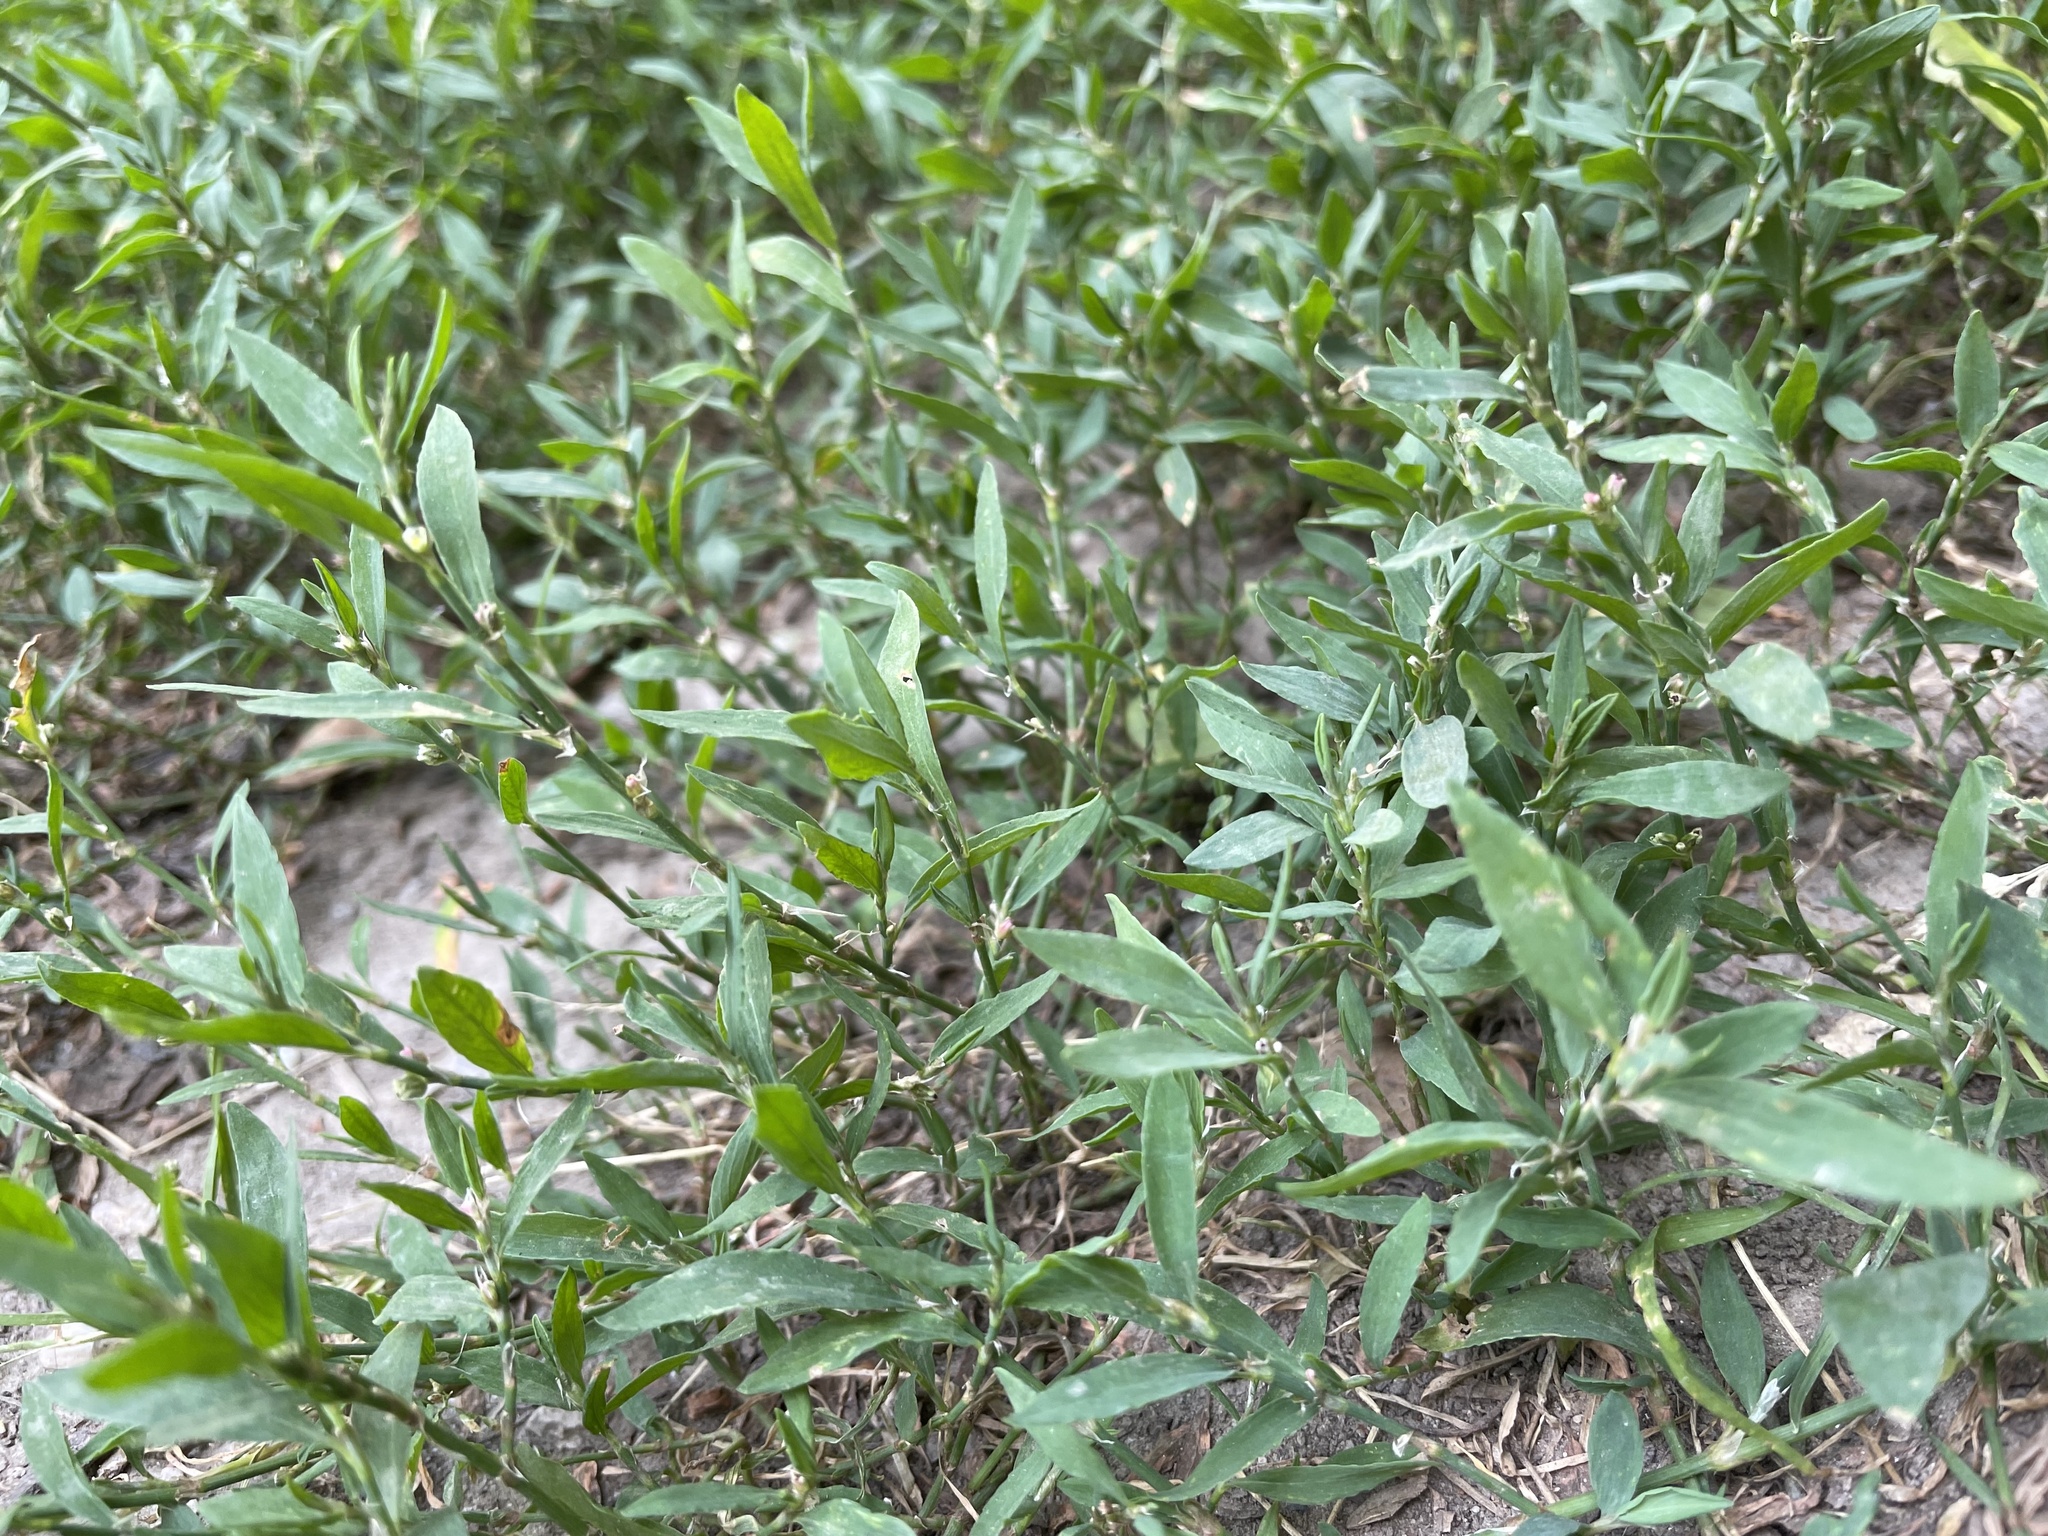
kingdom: Plantae
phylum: Tracheophyta
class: Magnoliopsida
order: Caryophyllales
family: Polygonaceae
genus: Polygonum
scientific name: Polygonum aviculare
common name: Prostrate knotweed
